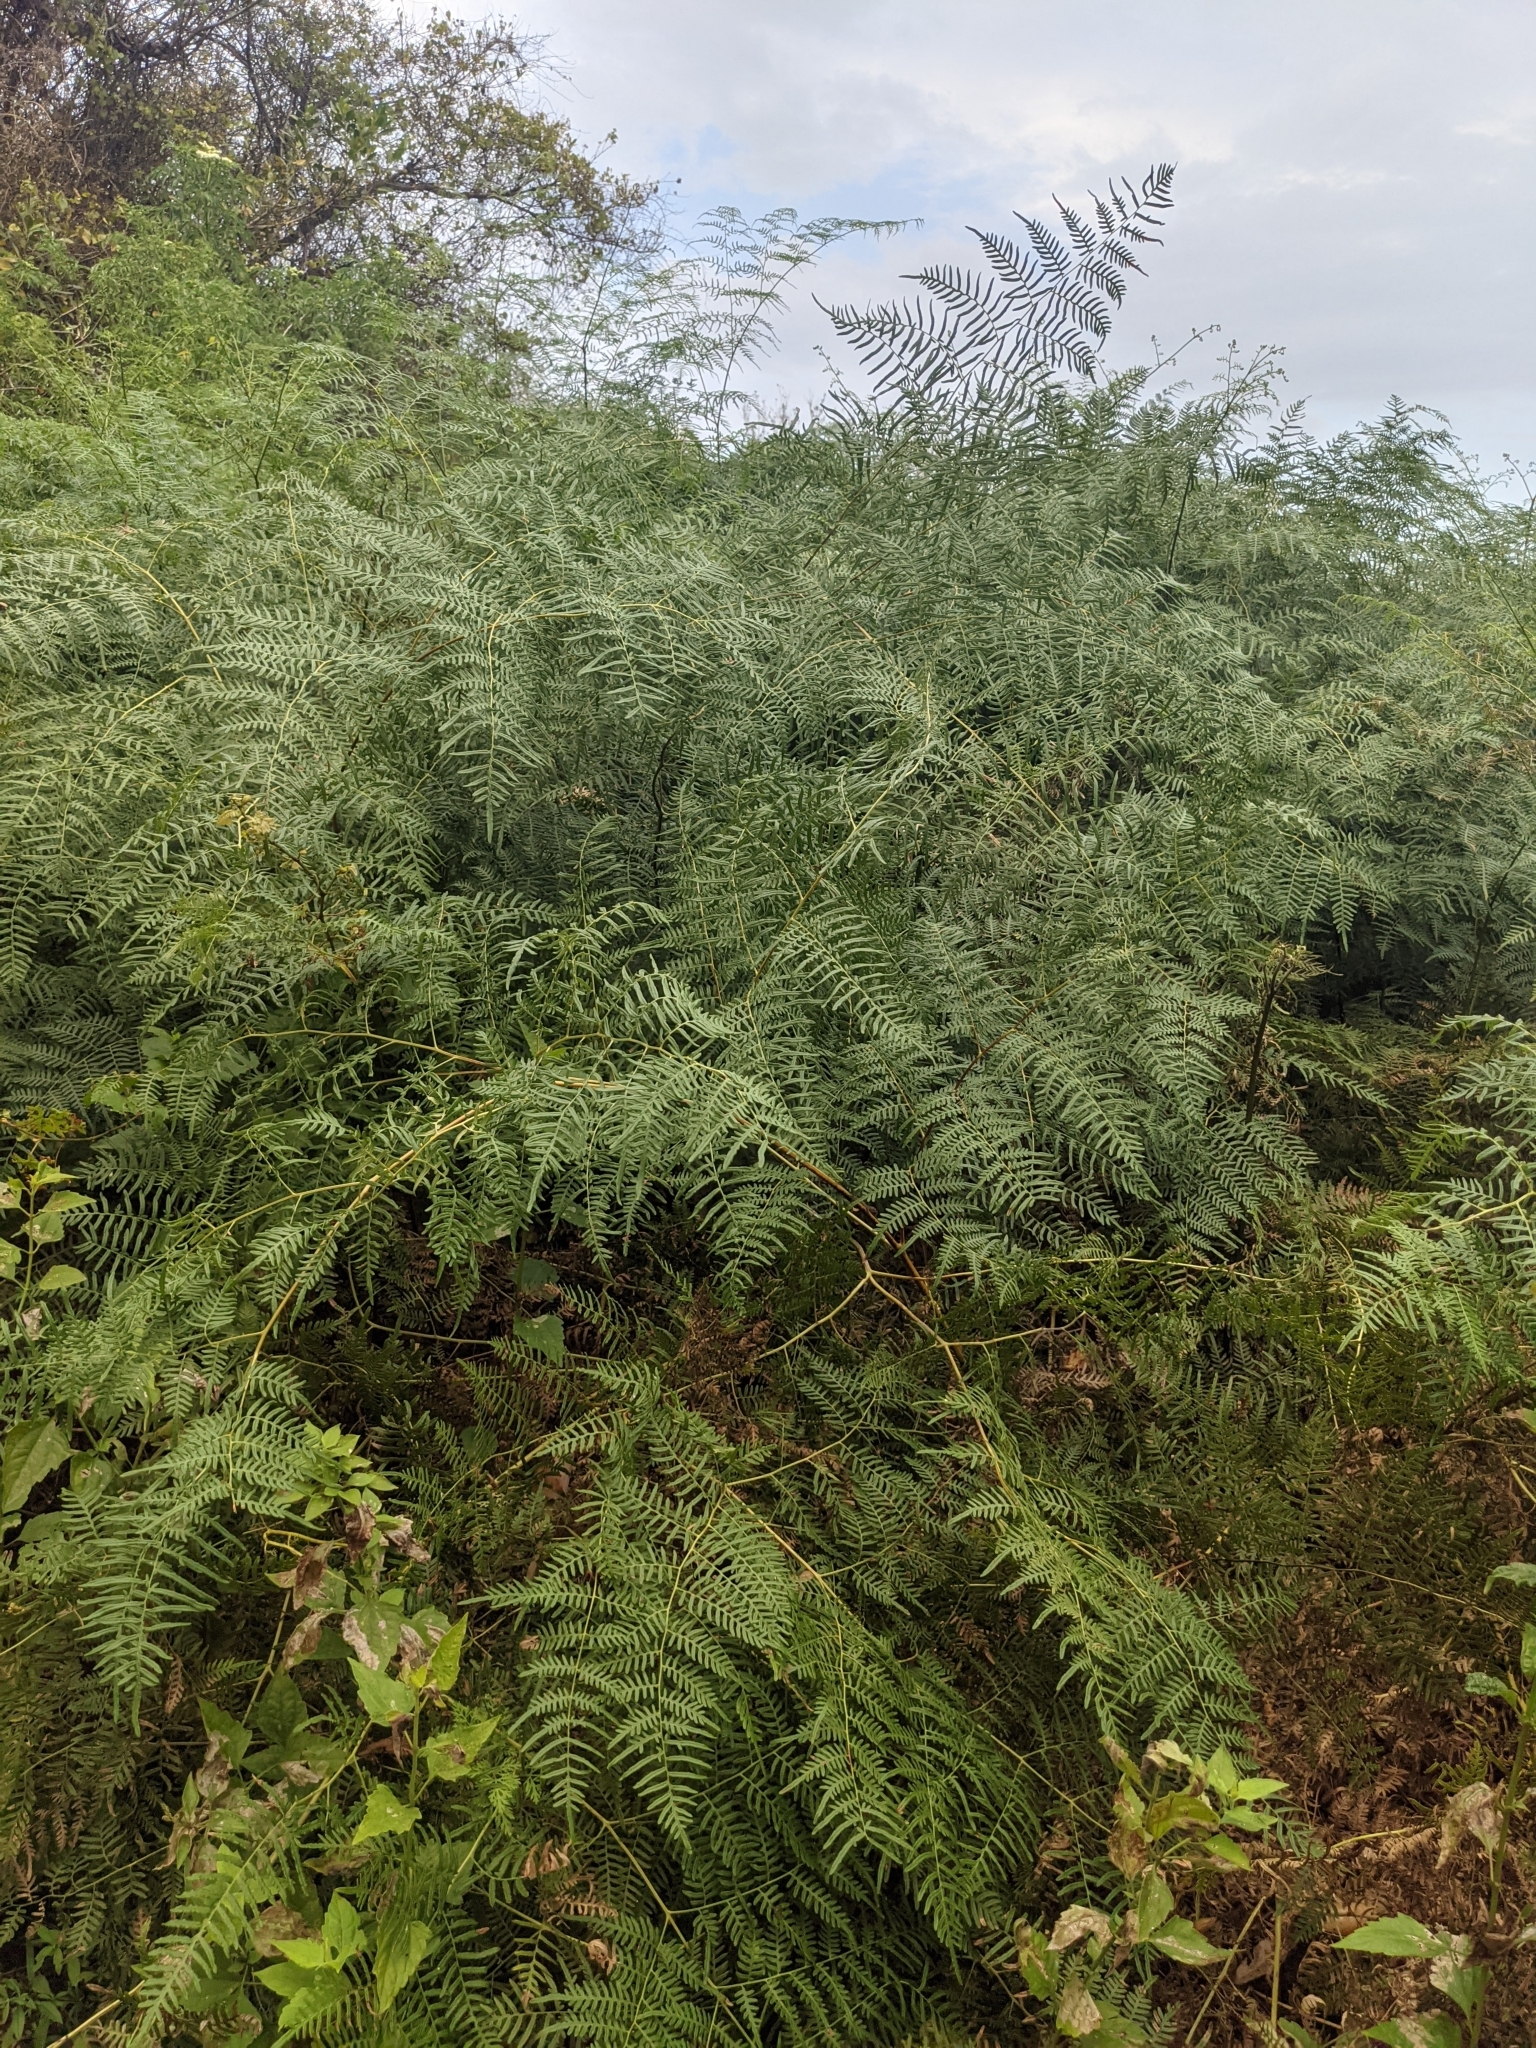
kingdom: Plantae
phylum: Tracheophyta
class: Polypodiopsida
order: Polypodiales
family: Dennstaedtiaceae
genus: Pteridium
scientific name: Pteridium caudatum
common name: Southern bracken fern
